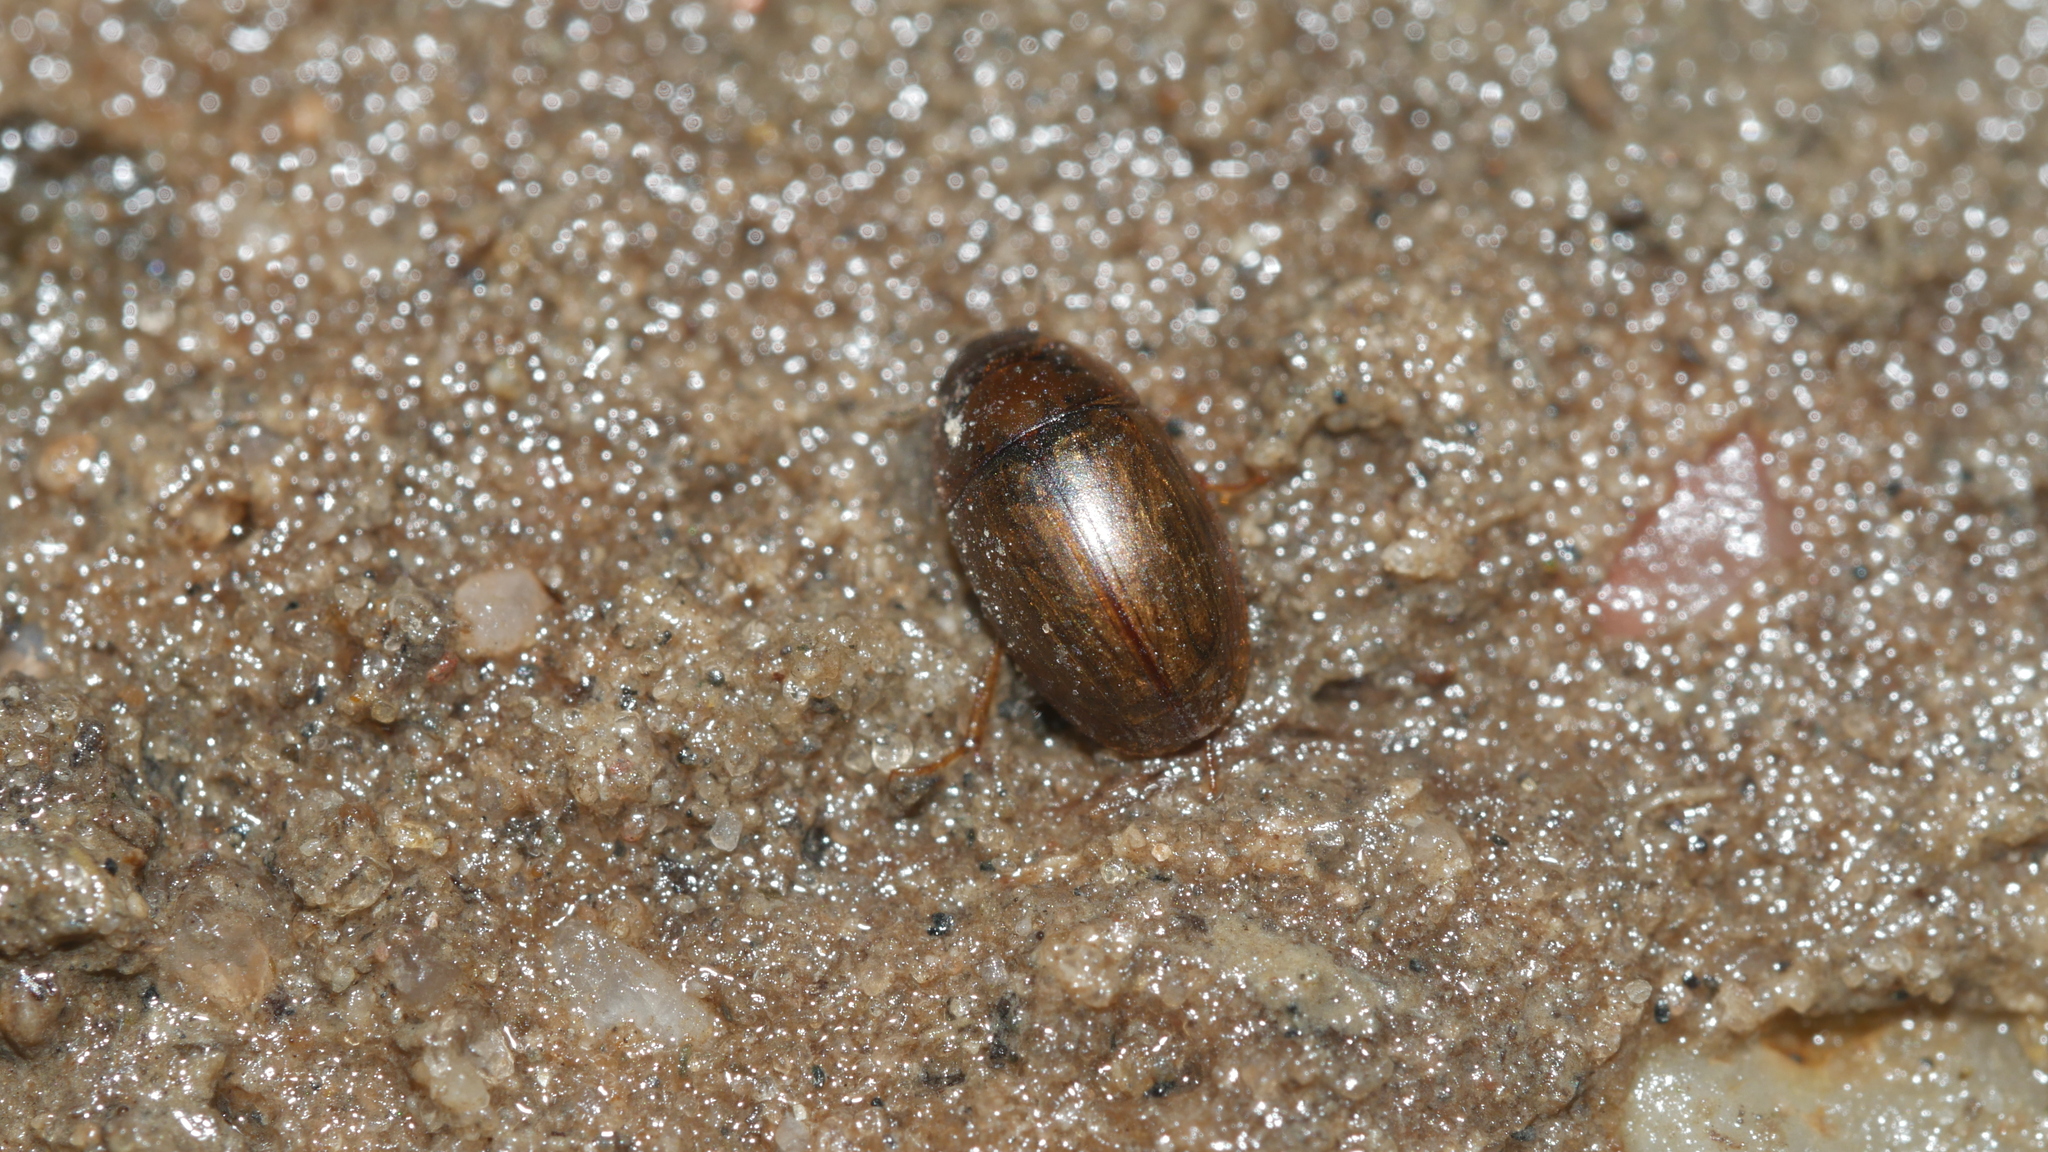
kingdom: Animalia
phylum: Arthropoda
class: Insecta
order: Coleoptera
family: Hydrophilidae
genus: Enochrus
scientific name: Enochrus
